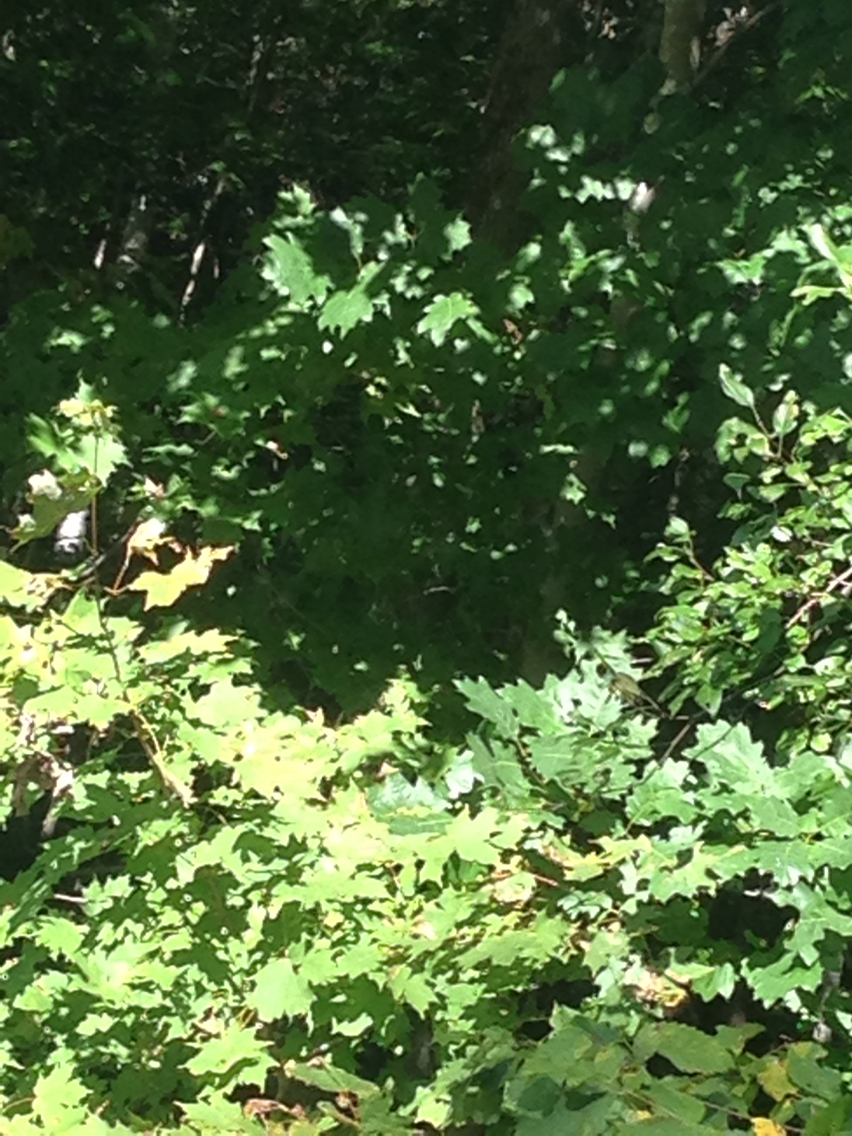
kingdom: Plantae
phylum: Tracheophyta
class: Magnoliopsida
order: Fagales
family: Fagaceae
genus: Quercus
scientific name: Quercus rubra
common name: Red oak
